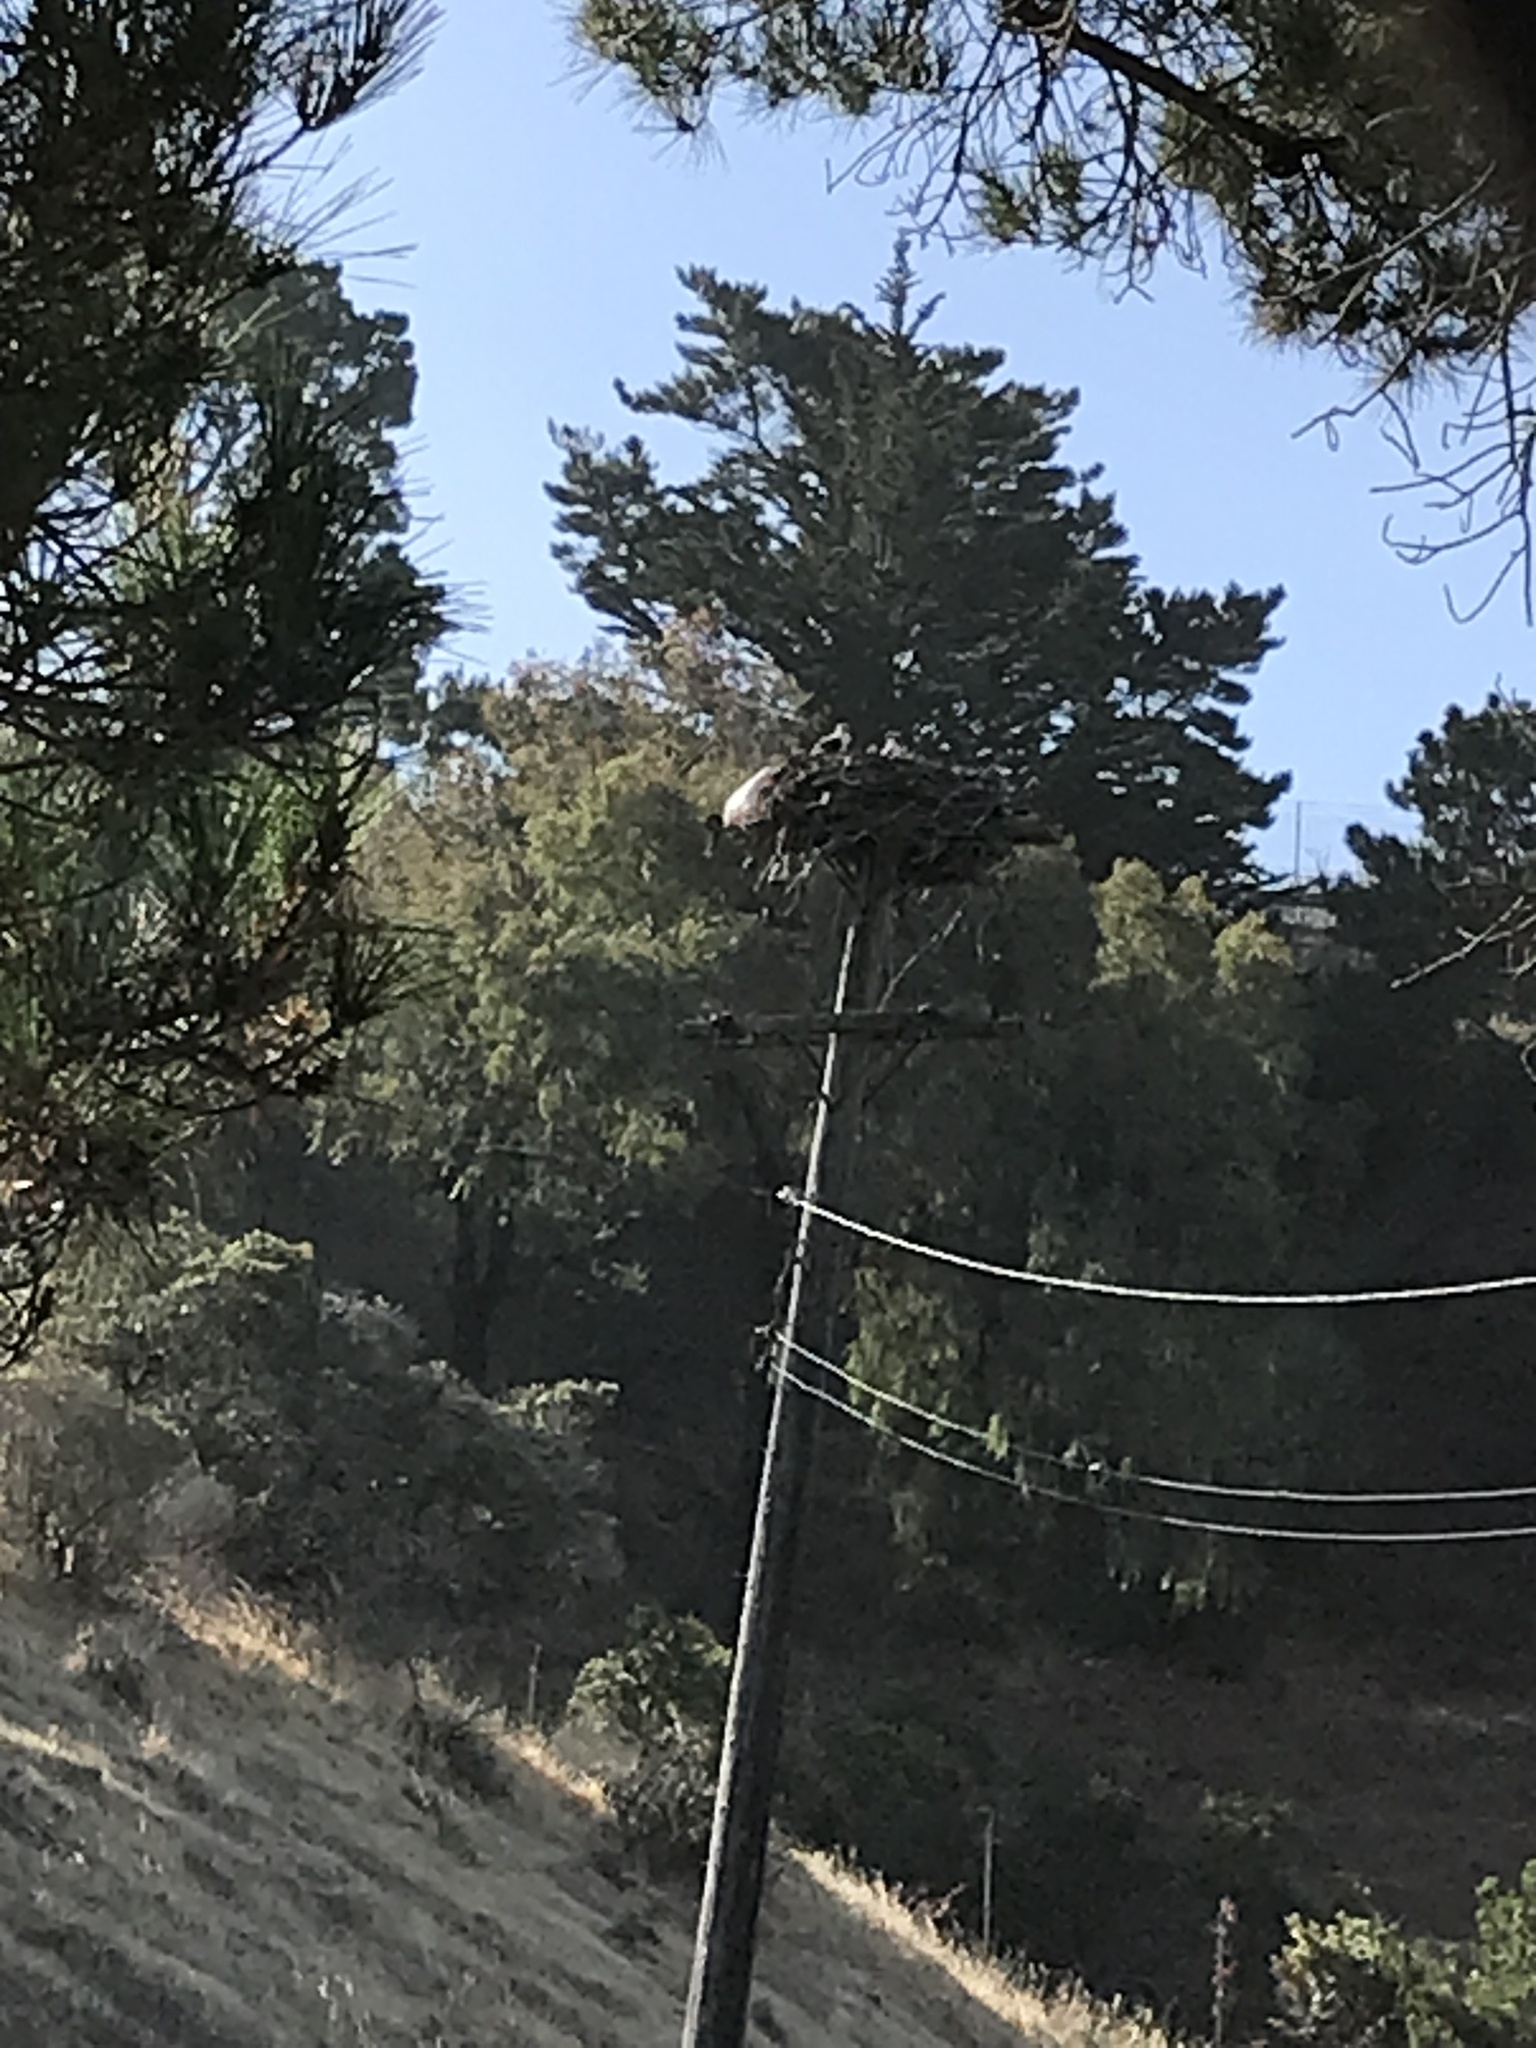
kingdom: Animalia
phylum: Chordata
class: Aves
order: Accipitriformes
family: Pandionidae
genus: Pandion
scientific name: Pandion haliaetus
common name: Osprey
